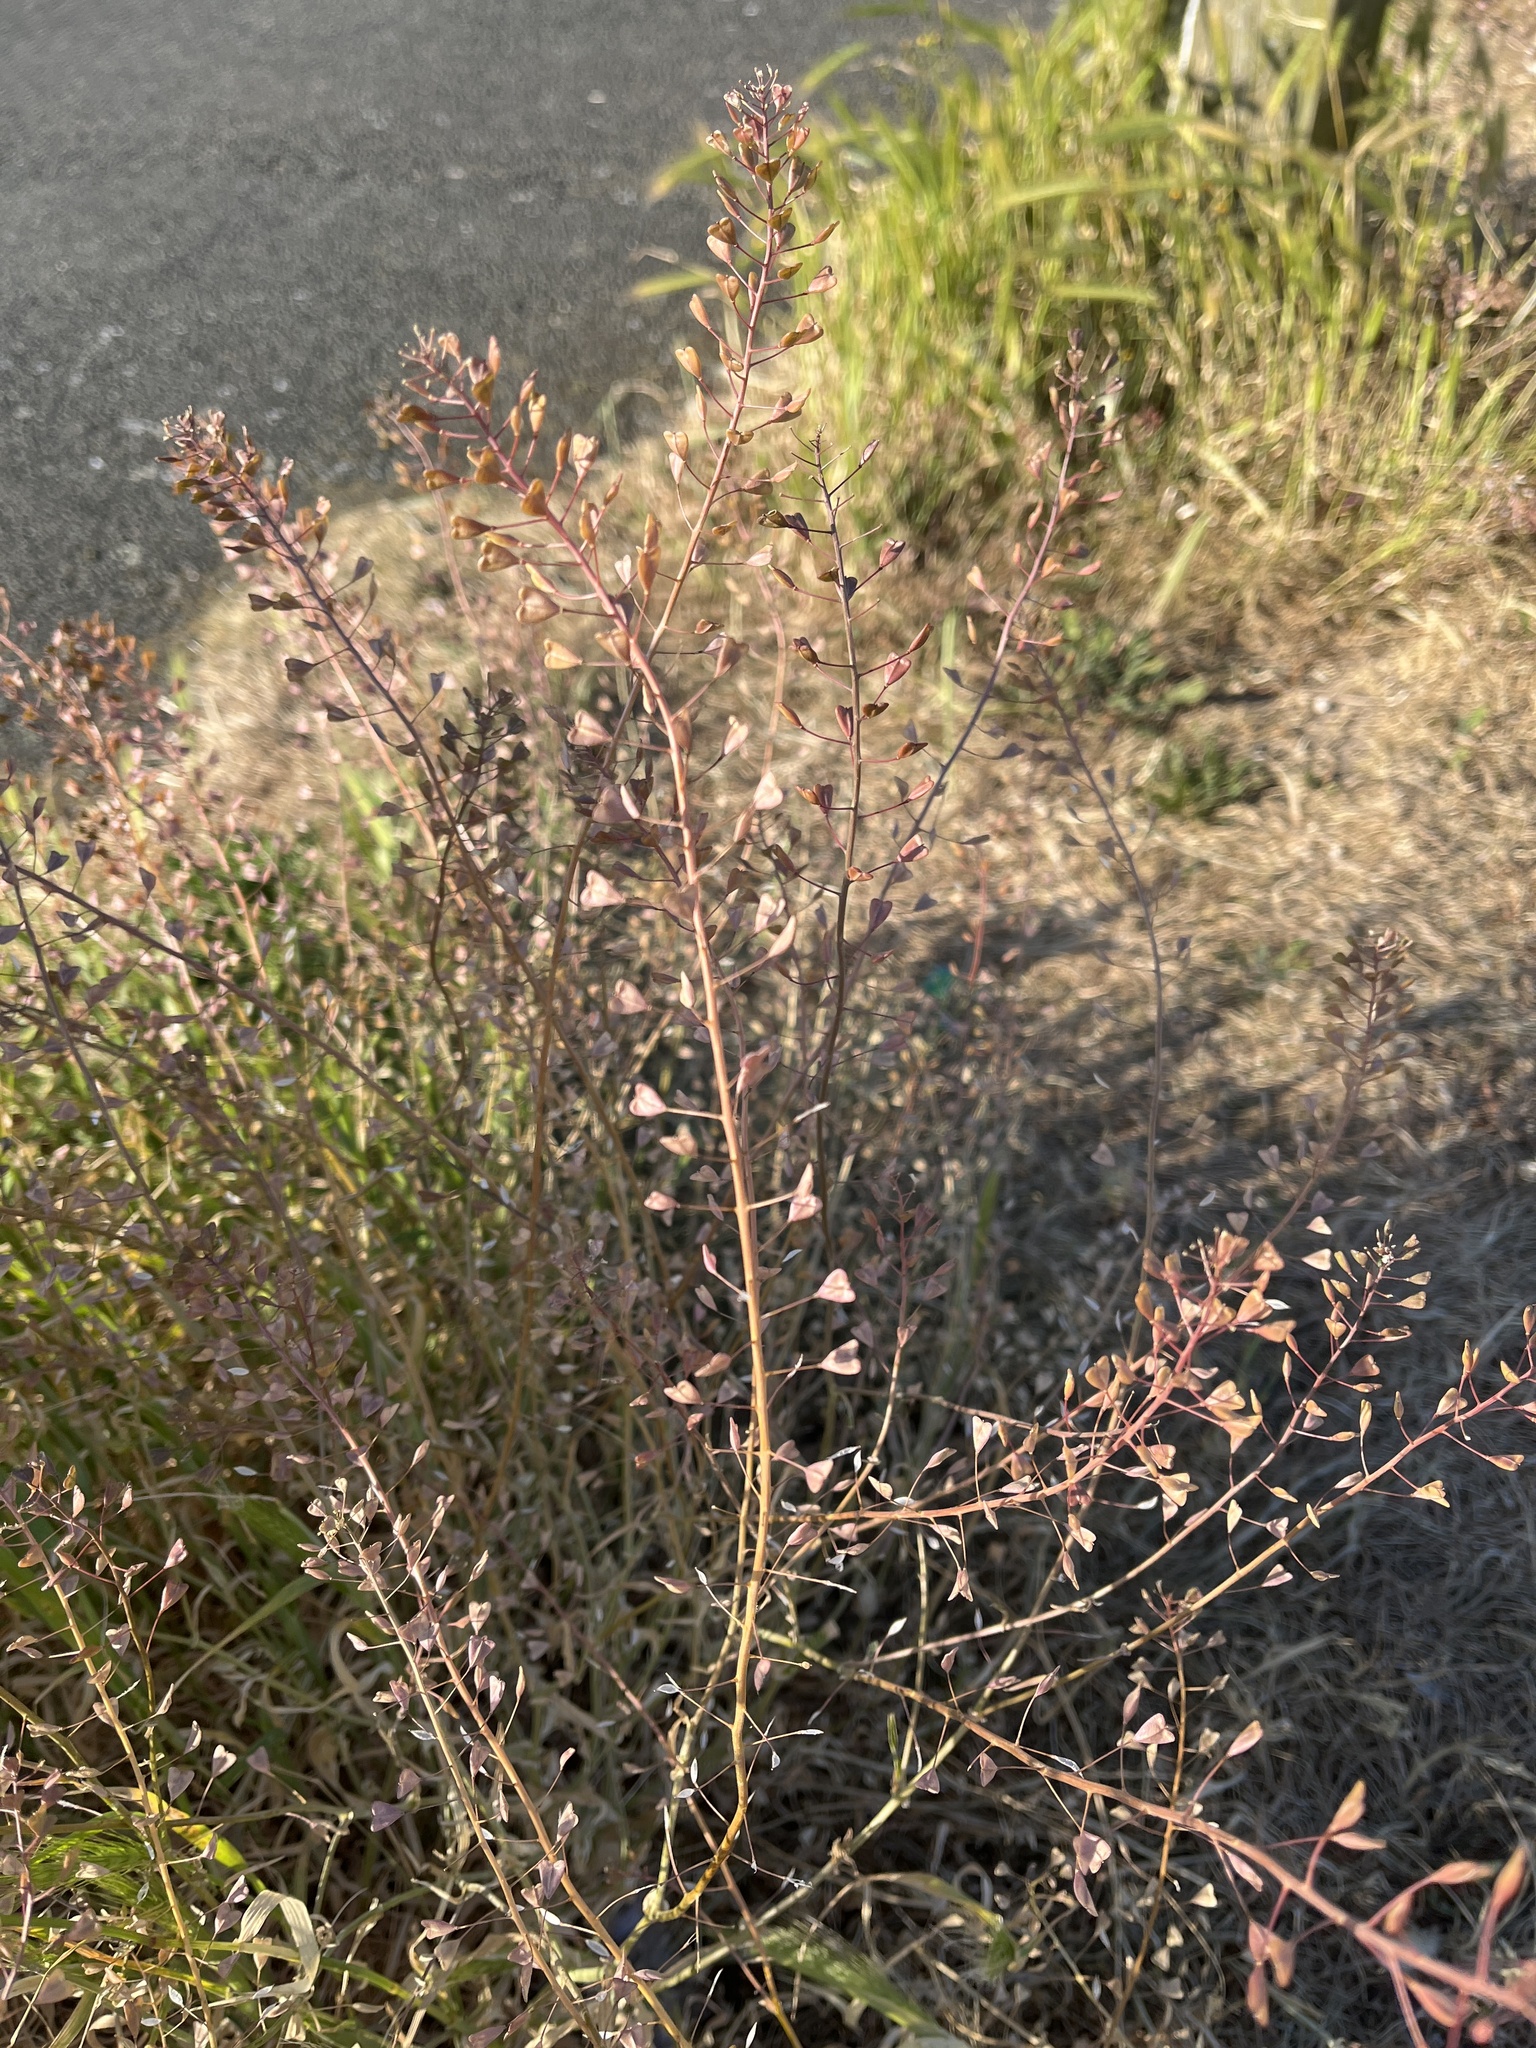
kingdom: Plantae
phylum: Tracheophyta
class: Magnoliopsida
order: Brassicales
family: Brassicaceae
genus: Capsella
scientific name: Capsella bursa-pastoris
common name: Shepherd's purse
